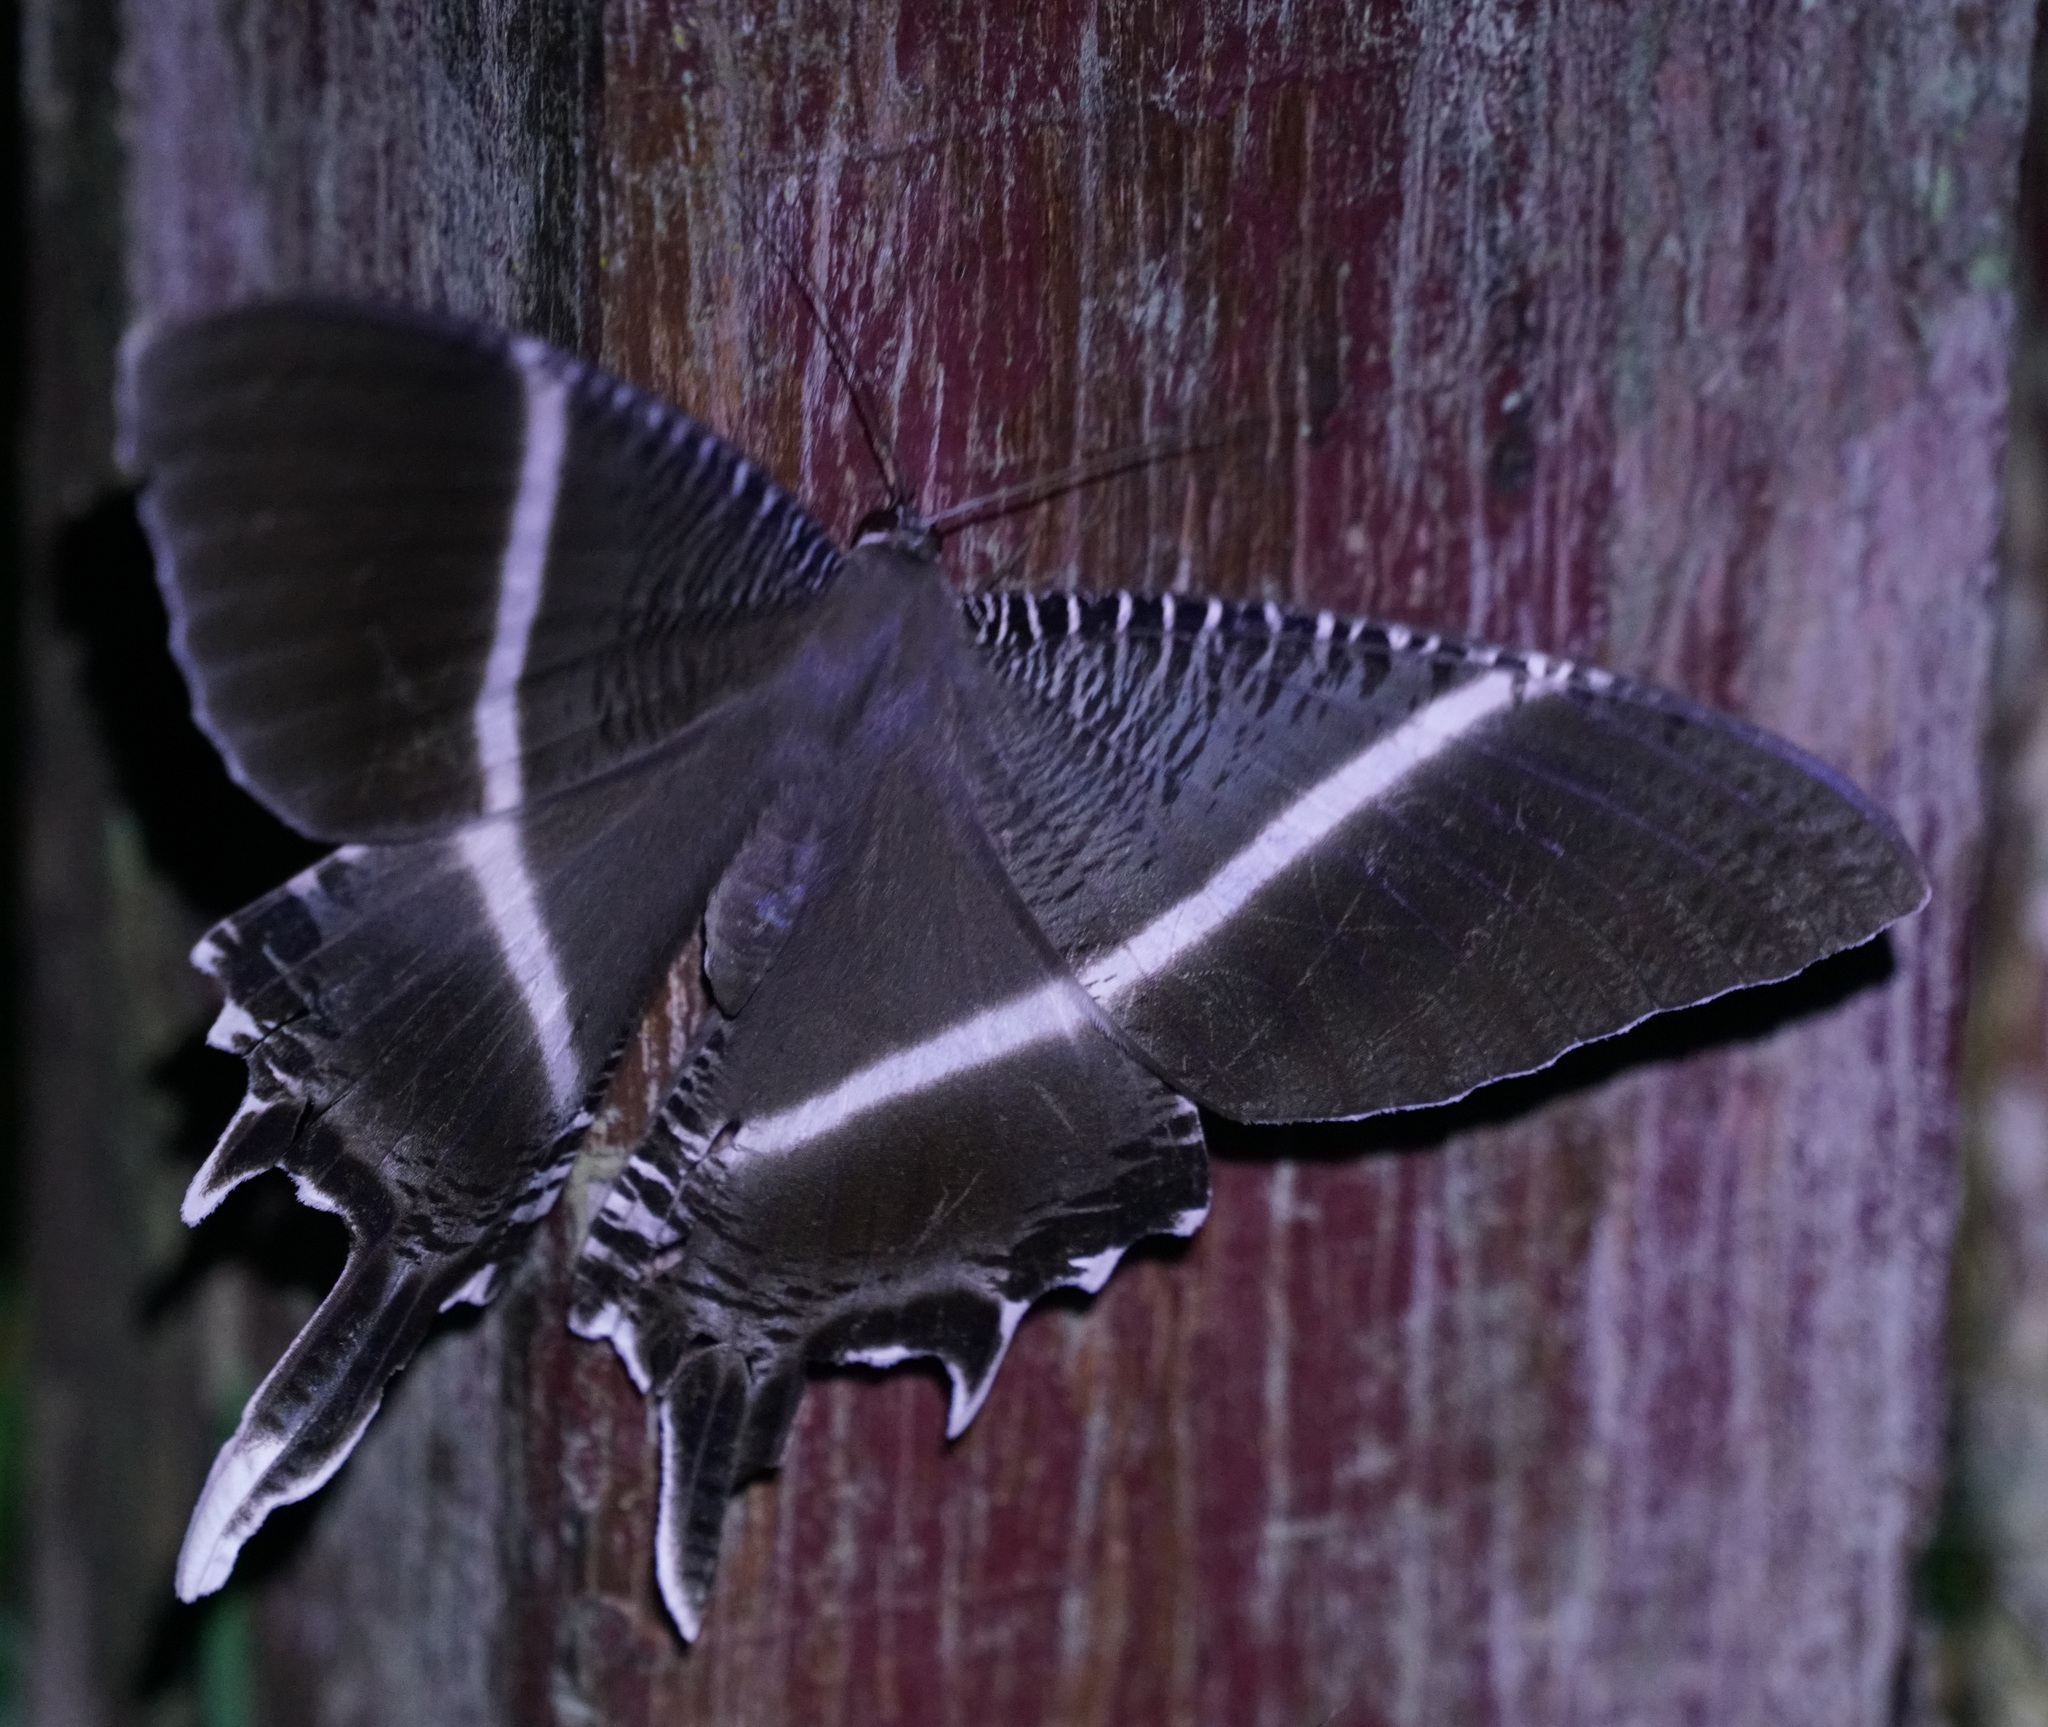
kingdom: Animalia
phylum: Arthropoda
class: Insecta
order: Lepidoptera
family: Uraniidae
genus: Lyssa
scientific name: Lyssa menoetius
